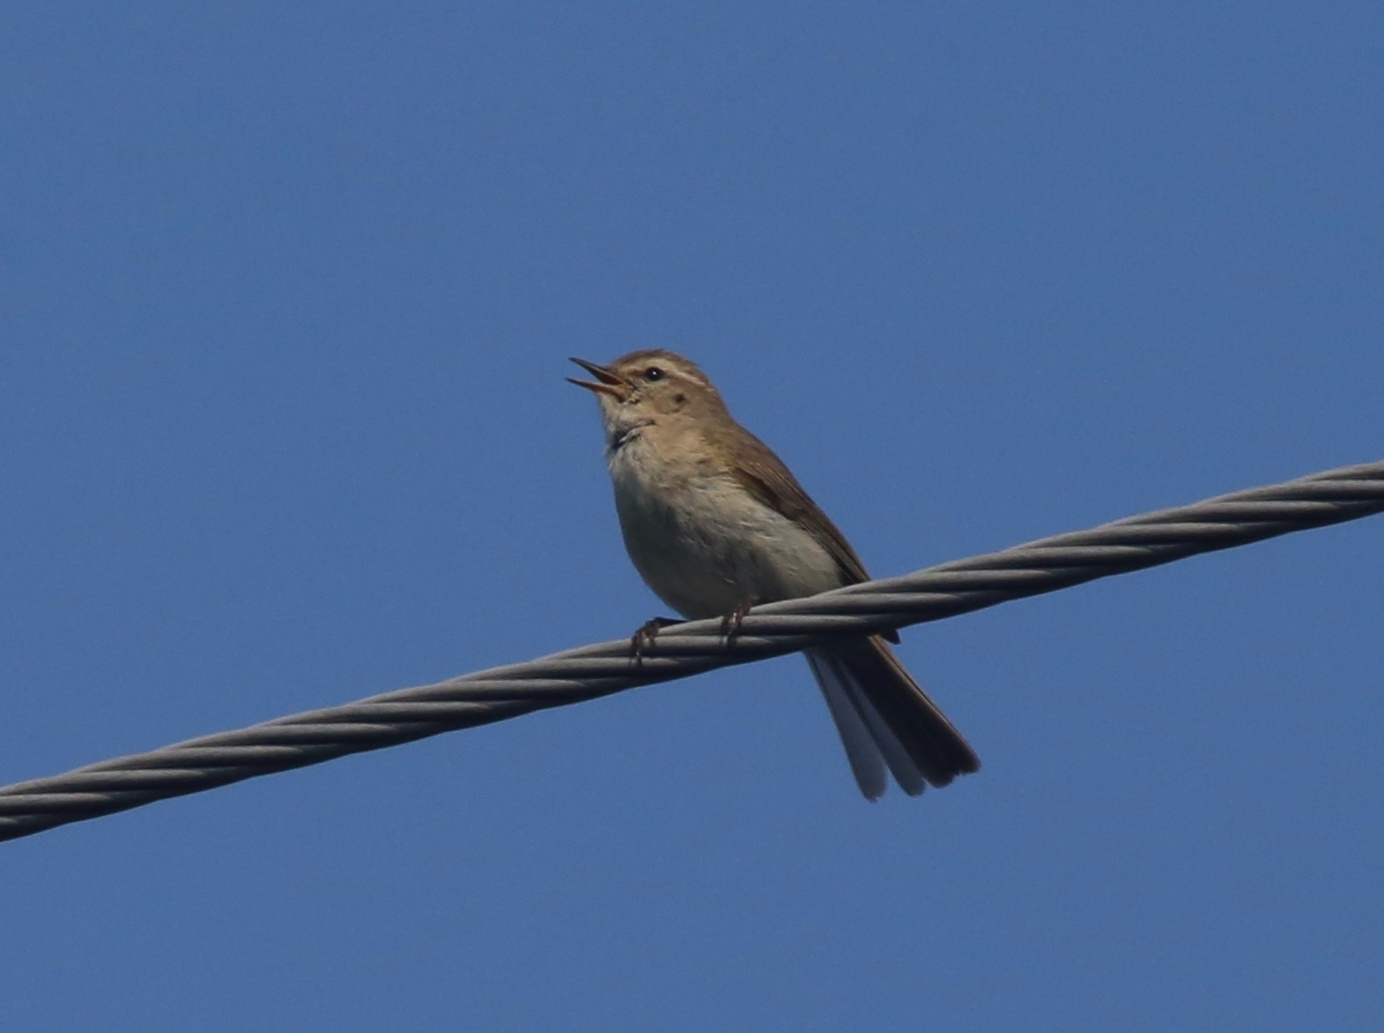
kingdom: Animalia
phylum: Chordata
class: Aves
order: Passeriformes
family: Phylloscopidae
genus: Phylloscopus
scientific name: Phylloscopus collybita
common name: Common chiffchaff
